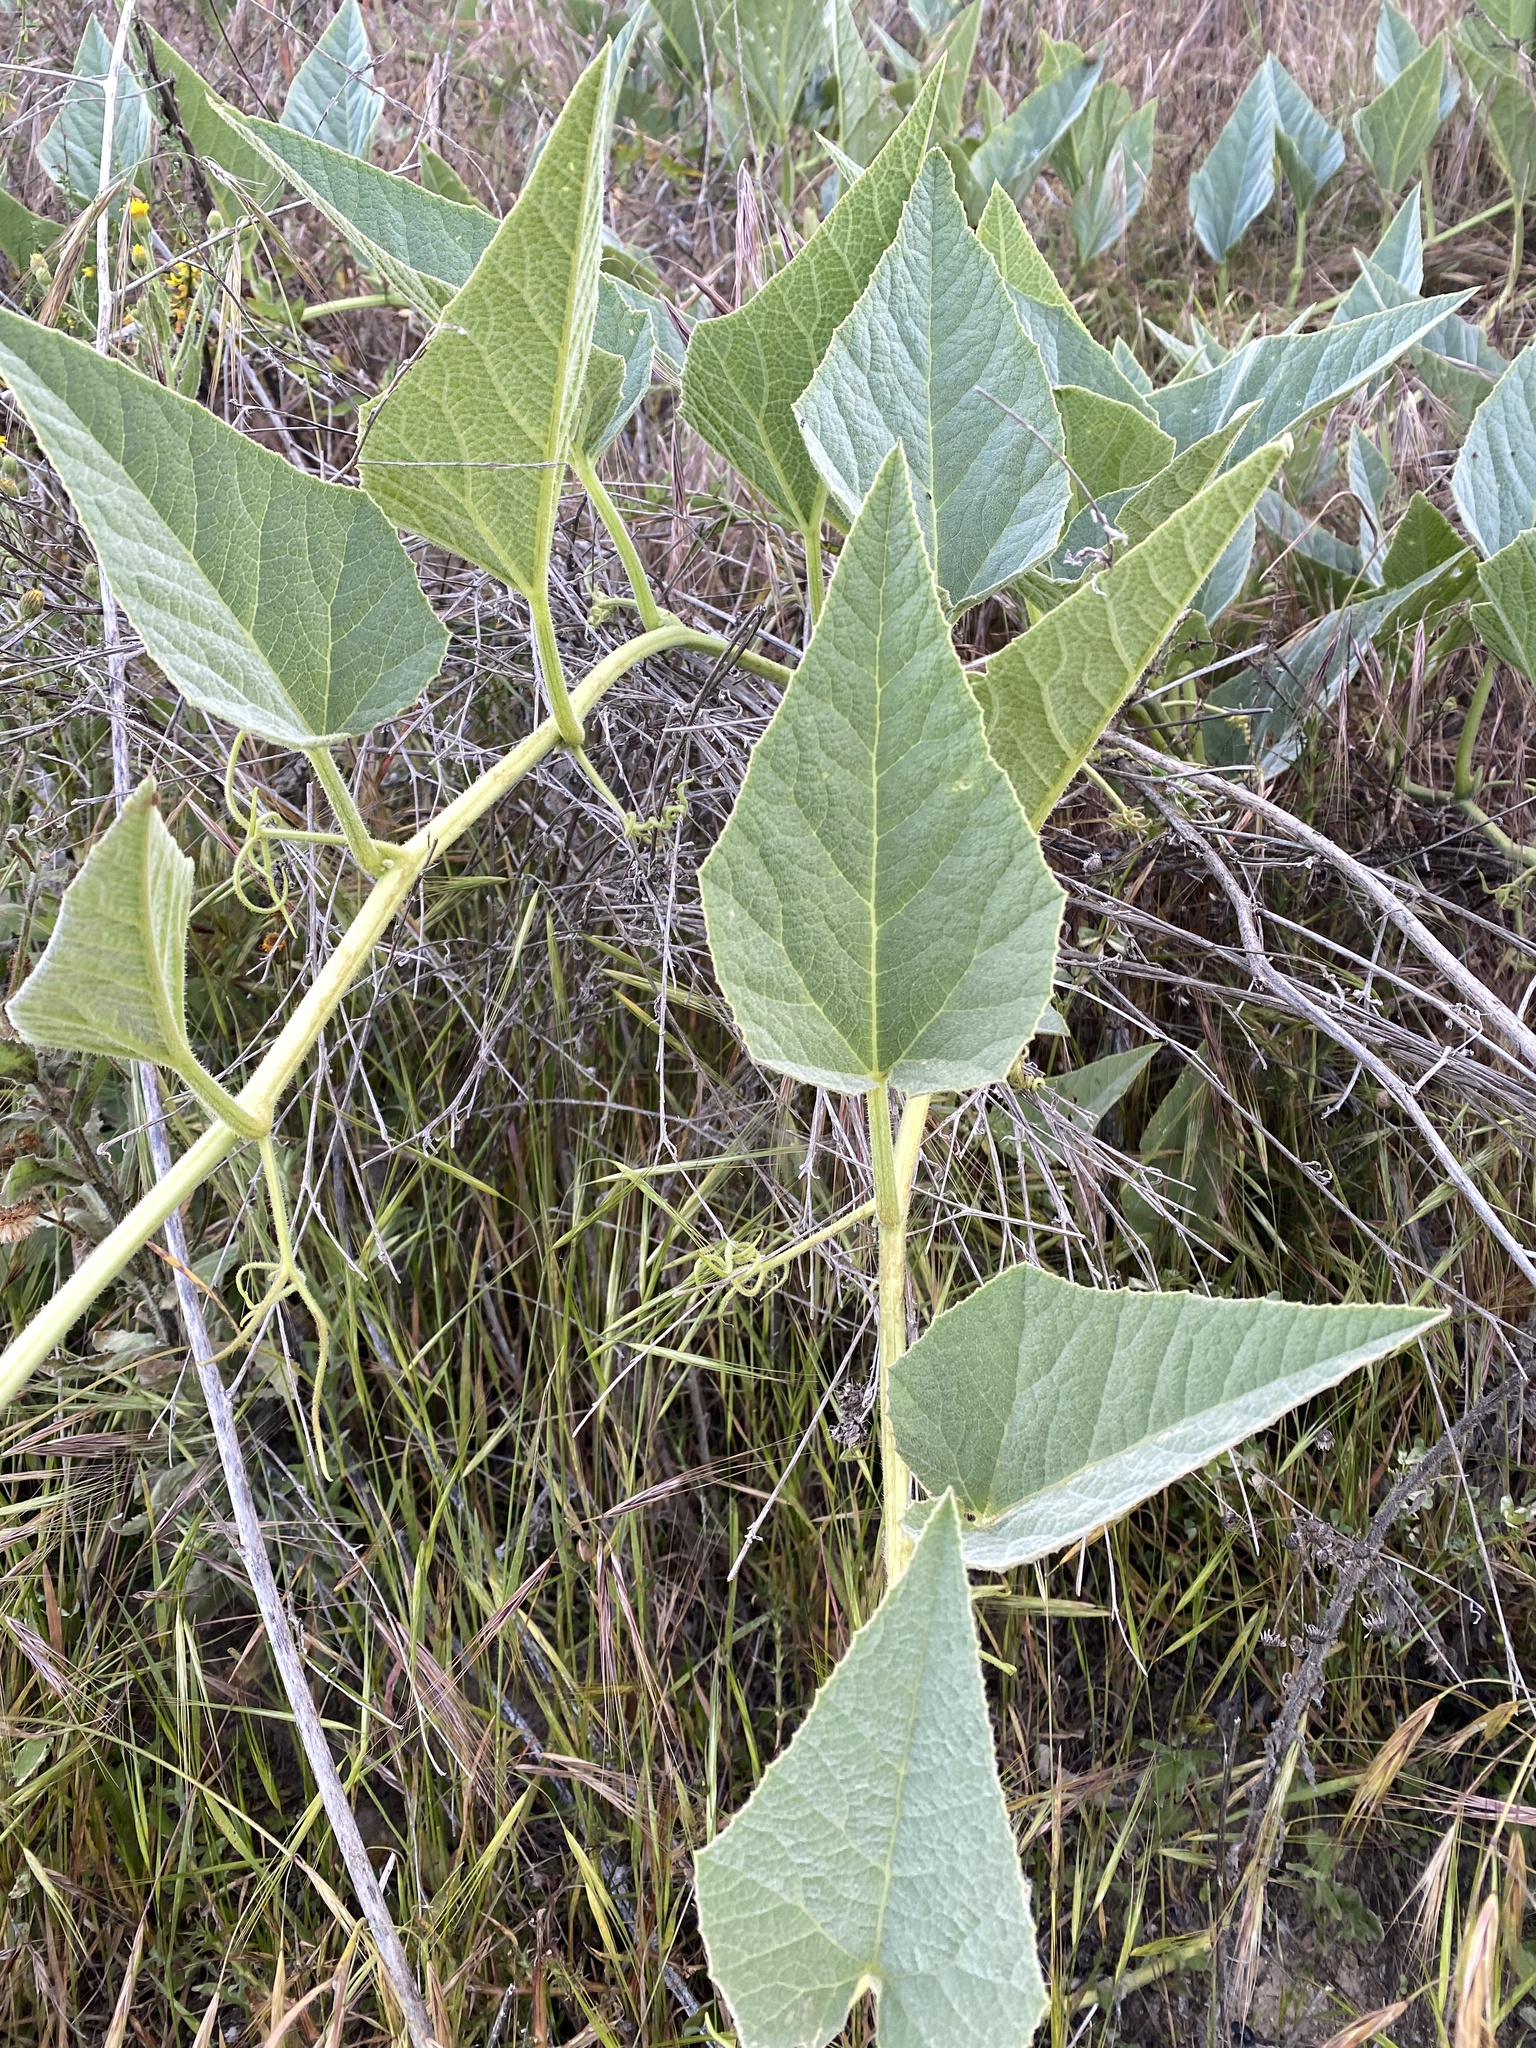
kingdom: Plantae
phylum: Tracheophyta
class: Magnoliopsida
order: Cucurbitales
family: Cucurbitaceae
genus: Cucurbita
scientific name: Cucurbita foetidissima
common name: Buffalo gourd
